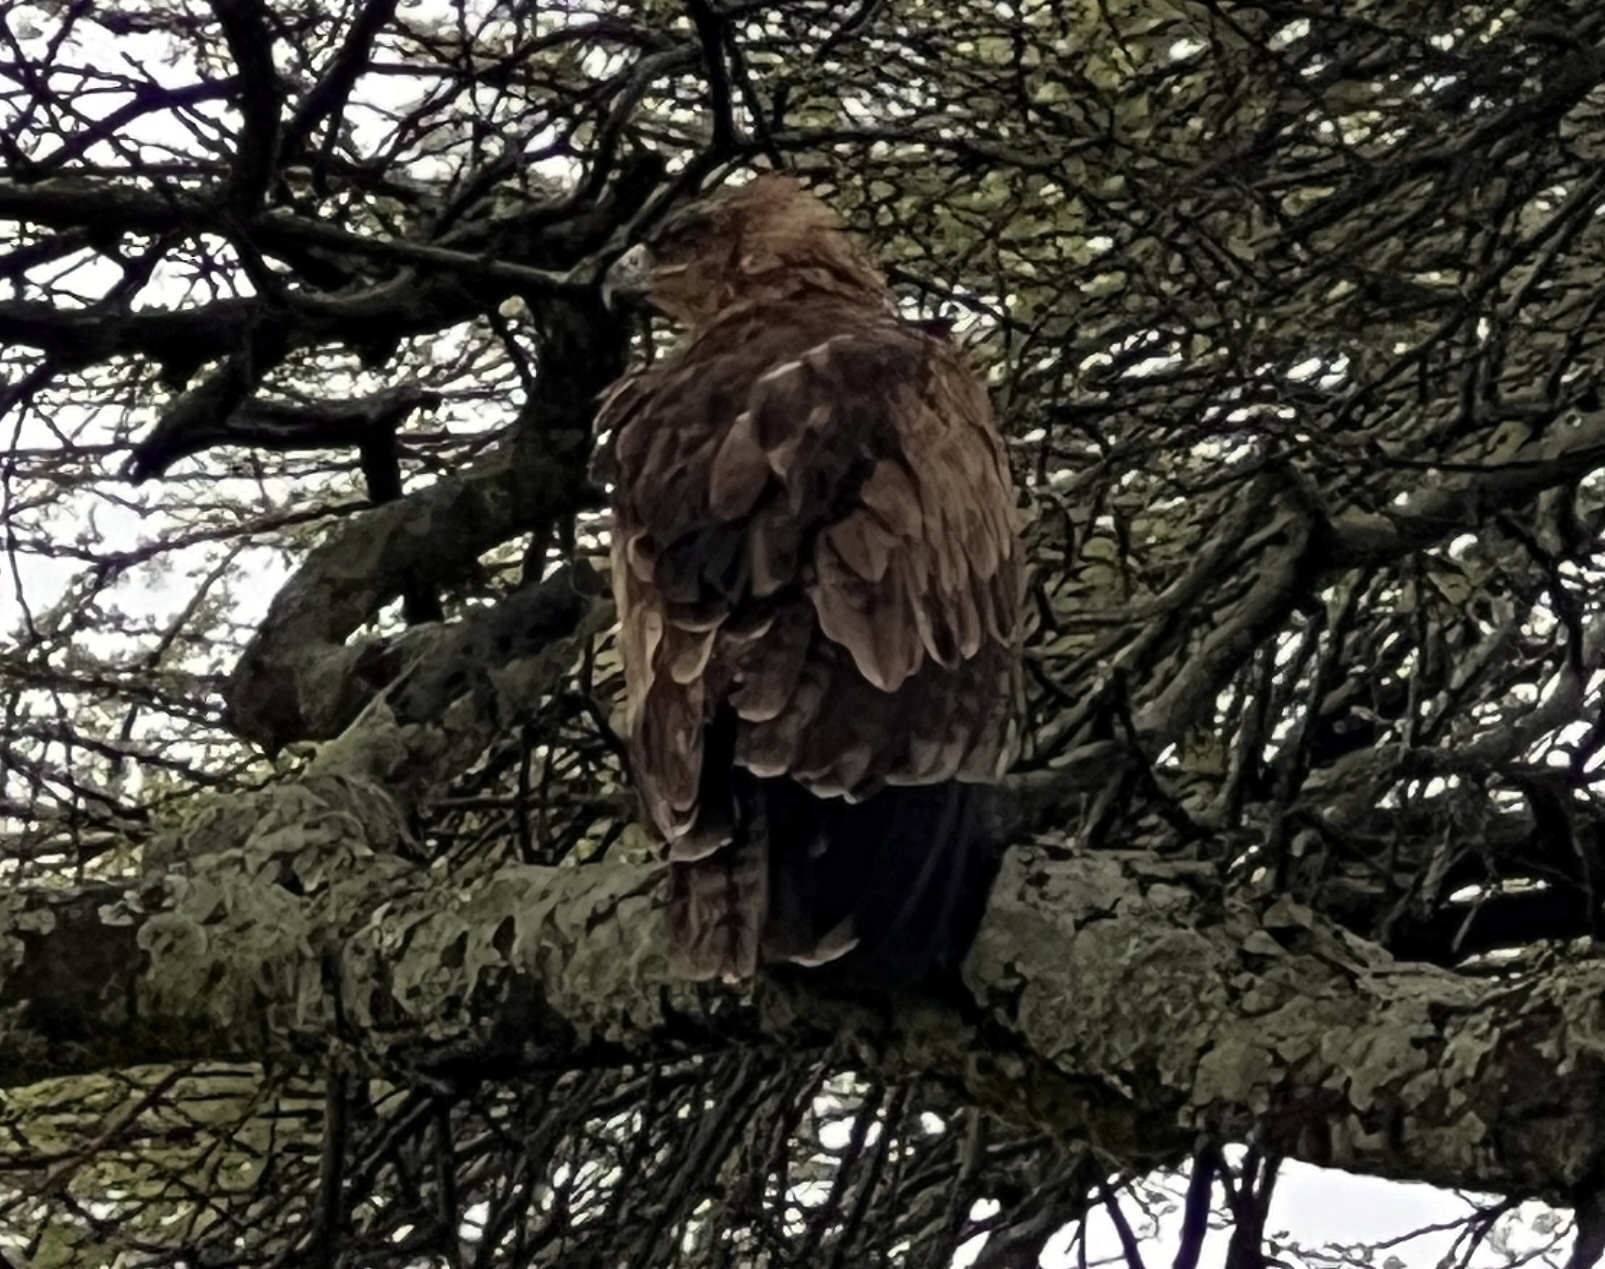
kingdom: Animalia
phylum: Chordata
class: Aves
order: Accipitriformes
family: Accipitridae
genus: Aquila
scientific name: Aquila rapax
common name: Tawny eagle
